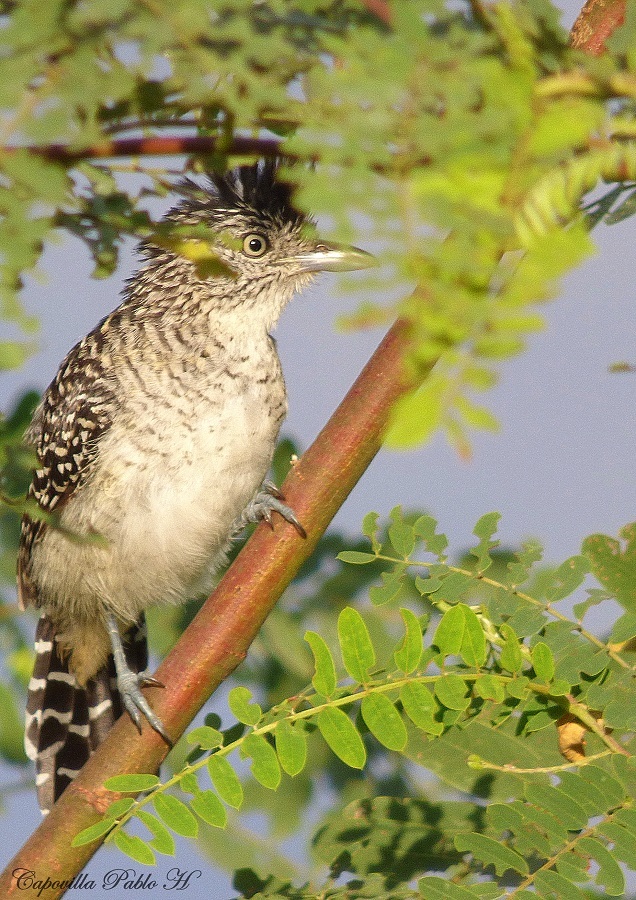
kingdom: Animalia
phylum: Chordata
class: Aves
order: Passeriformes
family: Thamnophilidae
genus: Thamnophilus
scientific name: Thamnophilus doliatus
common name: Barred antshrike
